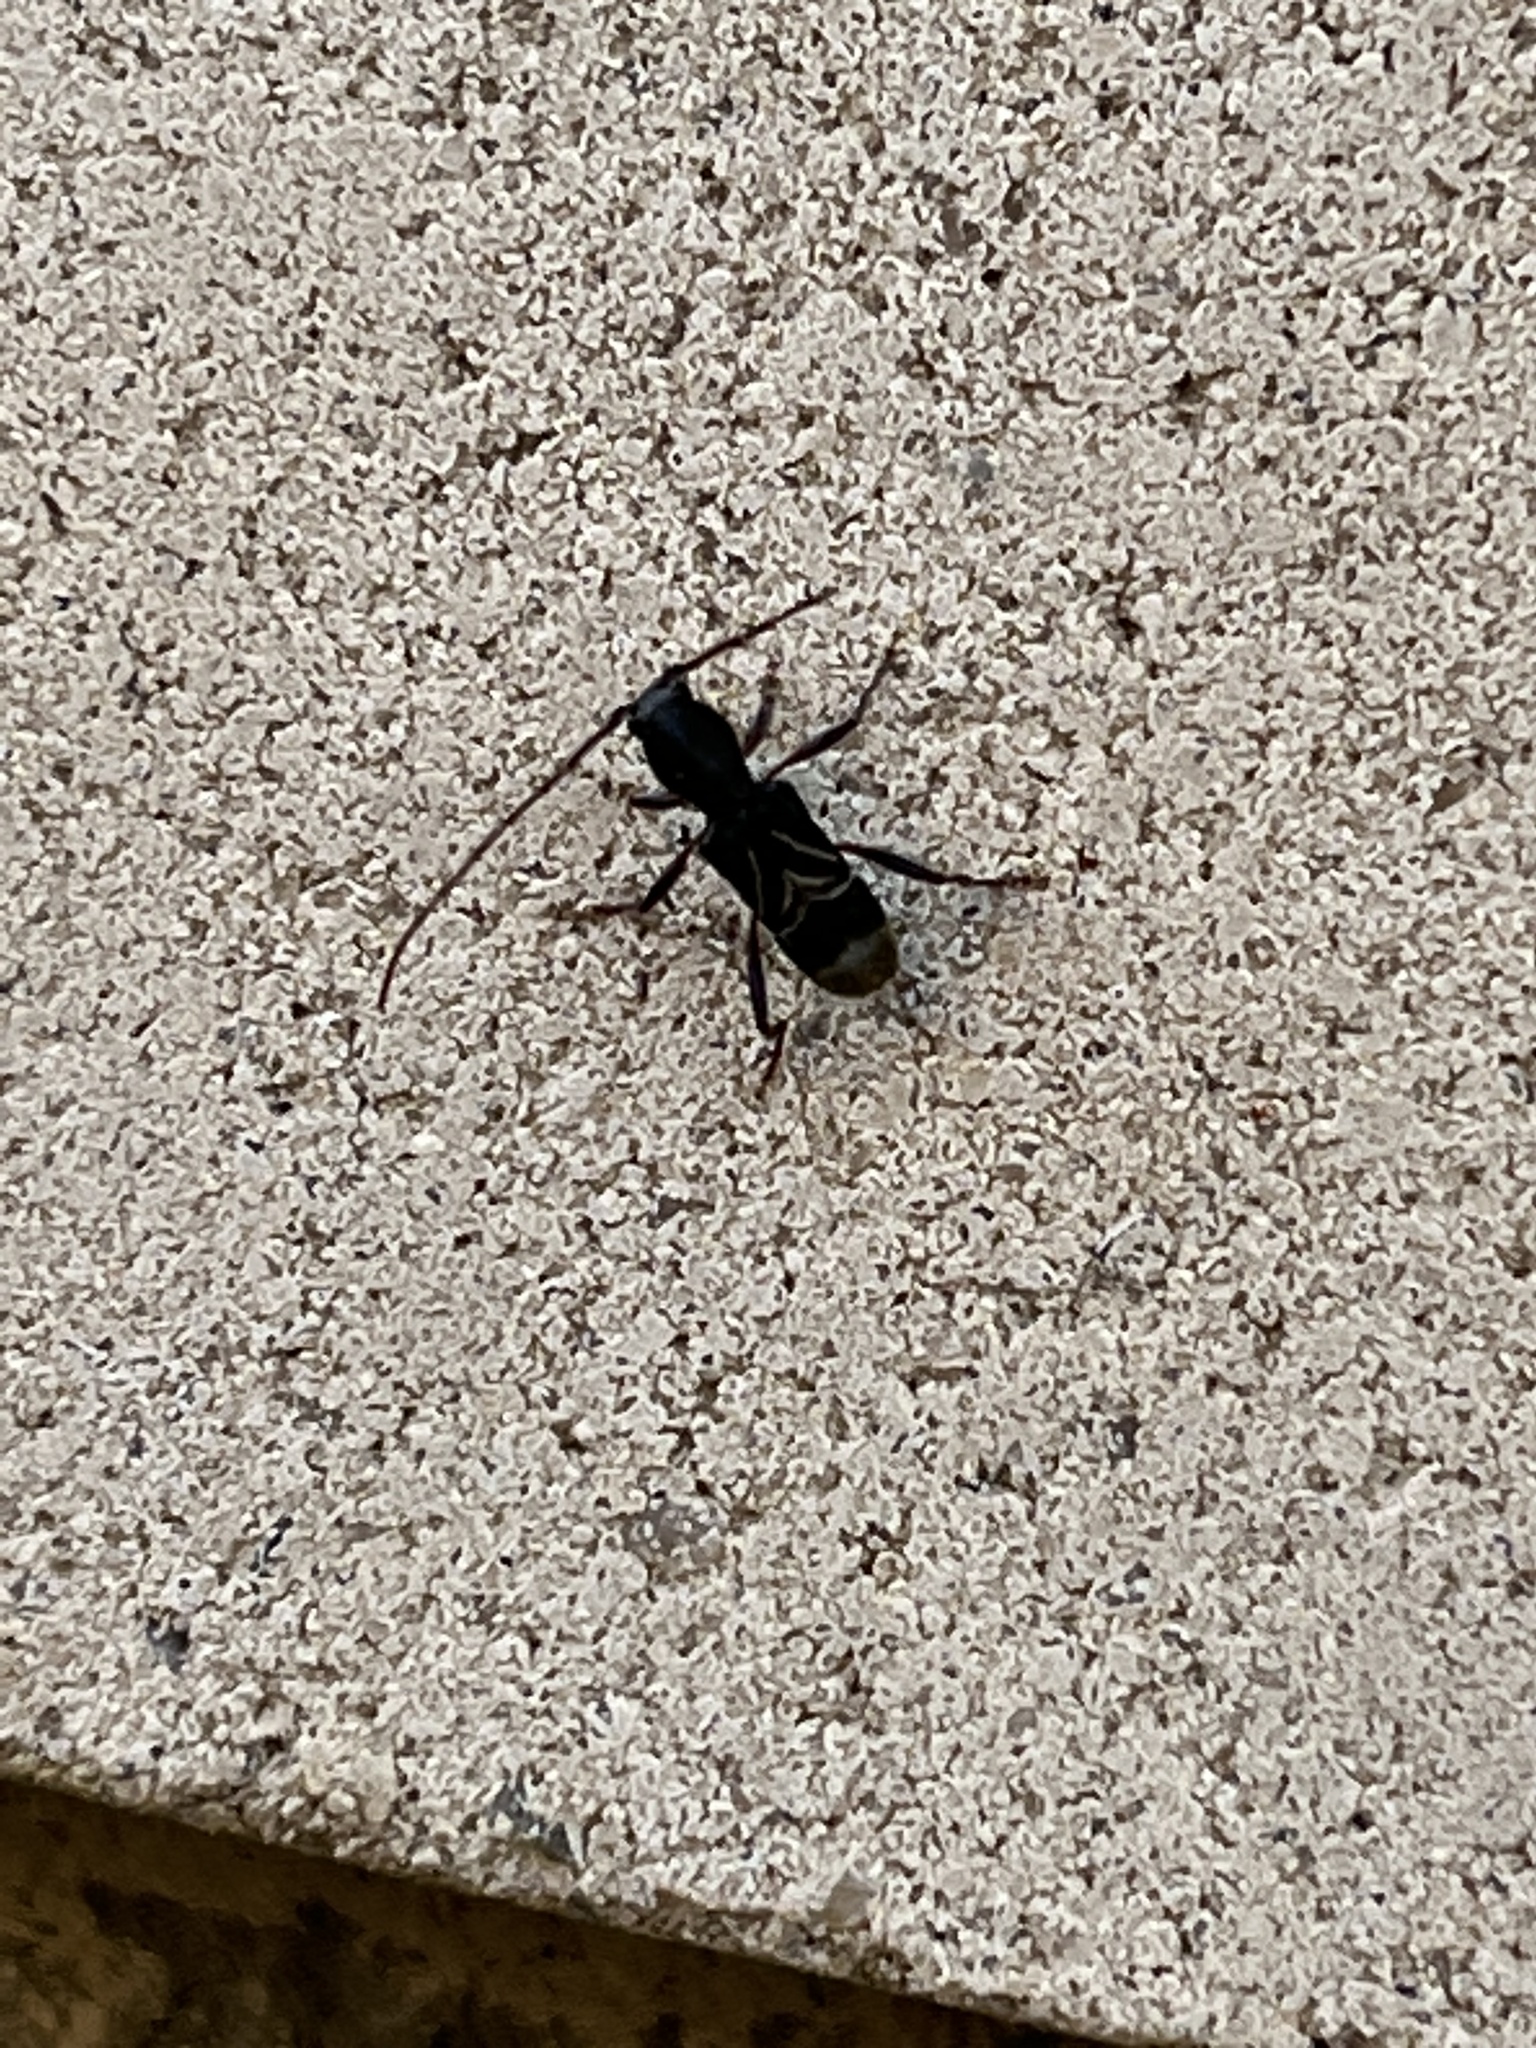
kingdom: Animalia
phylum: Arthropoda
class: Insecta
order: Coleoptera
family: Cerambycidae
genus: Cyrtophorus
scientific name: Cyrtophorus verrucosus
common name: Ant-like longhorn beetle
